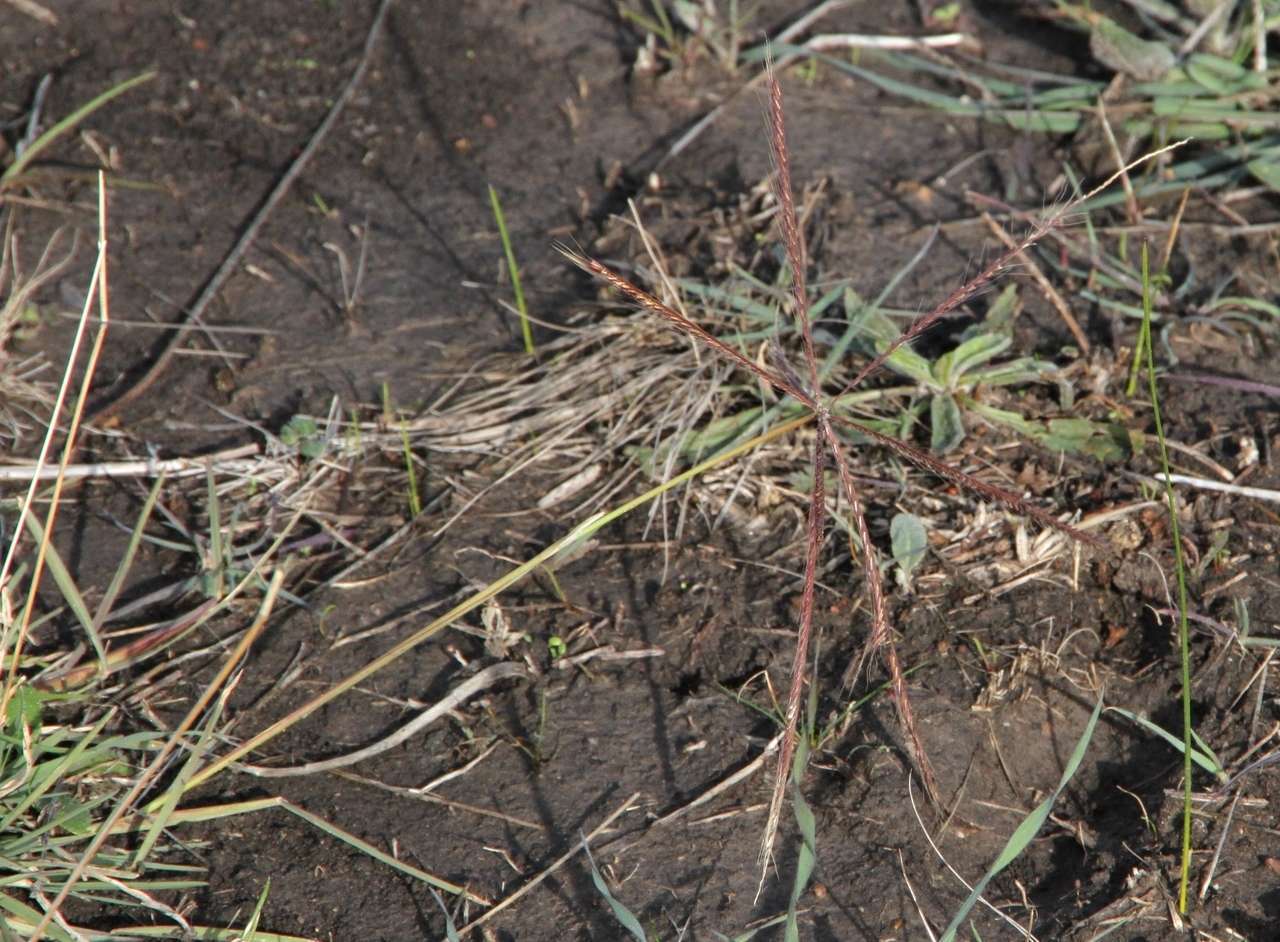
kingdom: Plantae
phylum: Tracheophyta
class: Liliopsida
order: Poales
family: Poaceae
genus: Chloris
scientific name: Chloris truncata
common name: Windmill-grass
